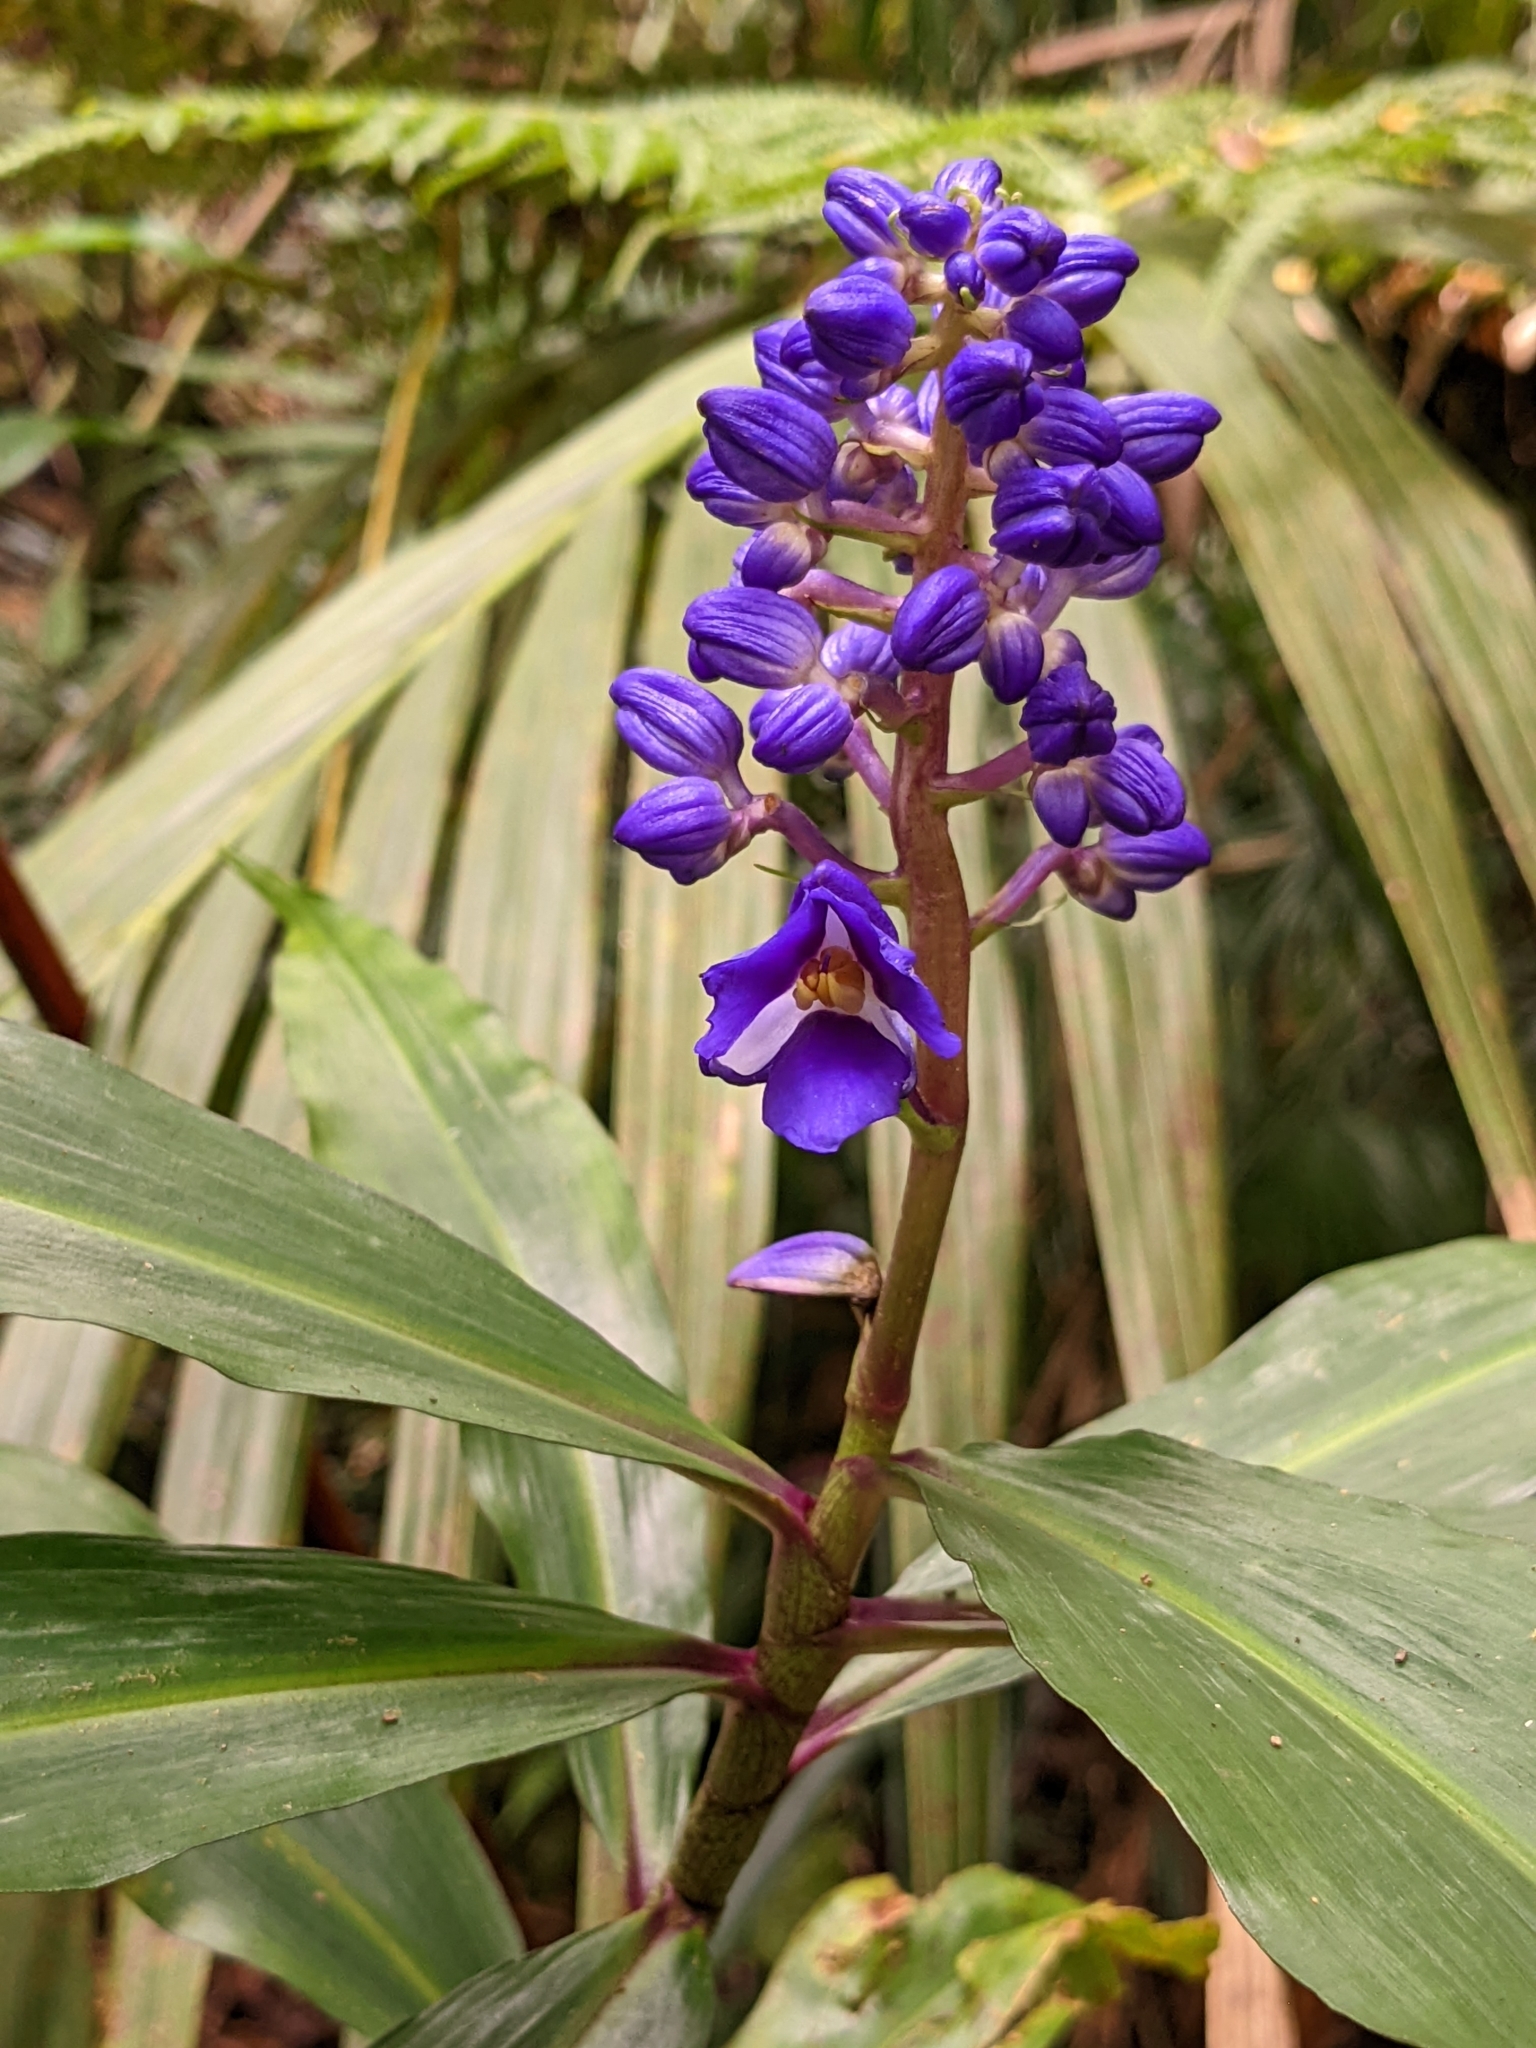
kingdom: Plantae
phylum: Tracheophyta
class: Liliopsida
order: Commelinales
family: Commelinaceae
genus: Dichorisandra
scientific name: Dichorisandra thyrsiflora
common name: Blue-ginger
